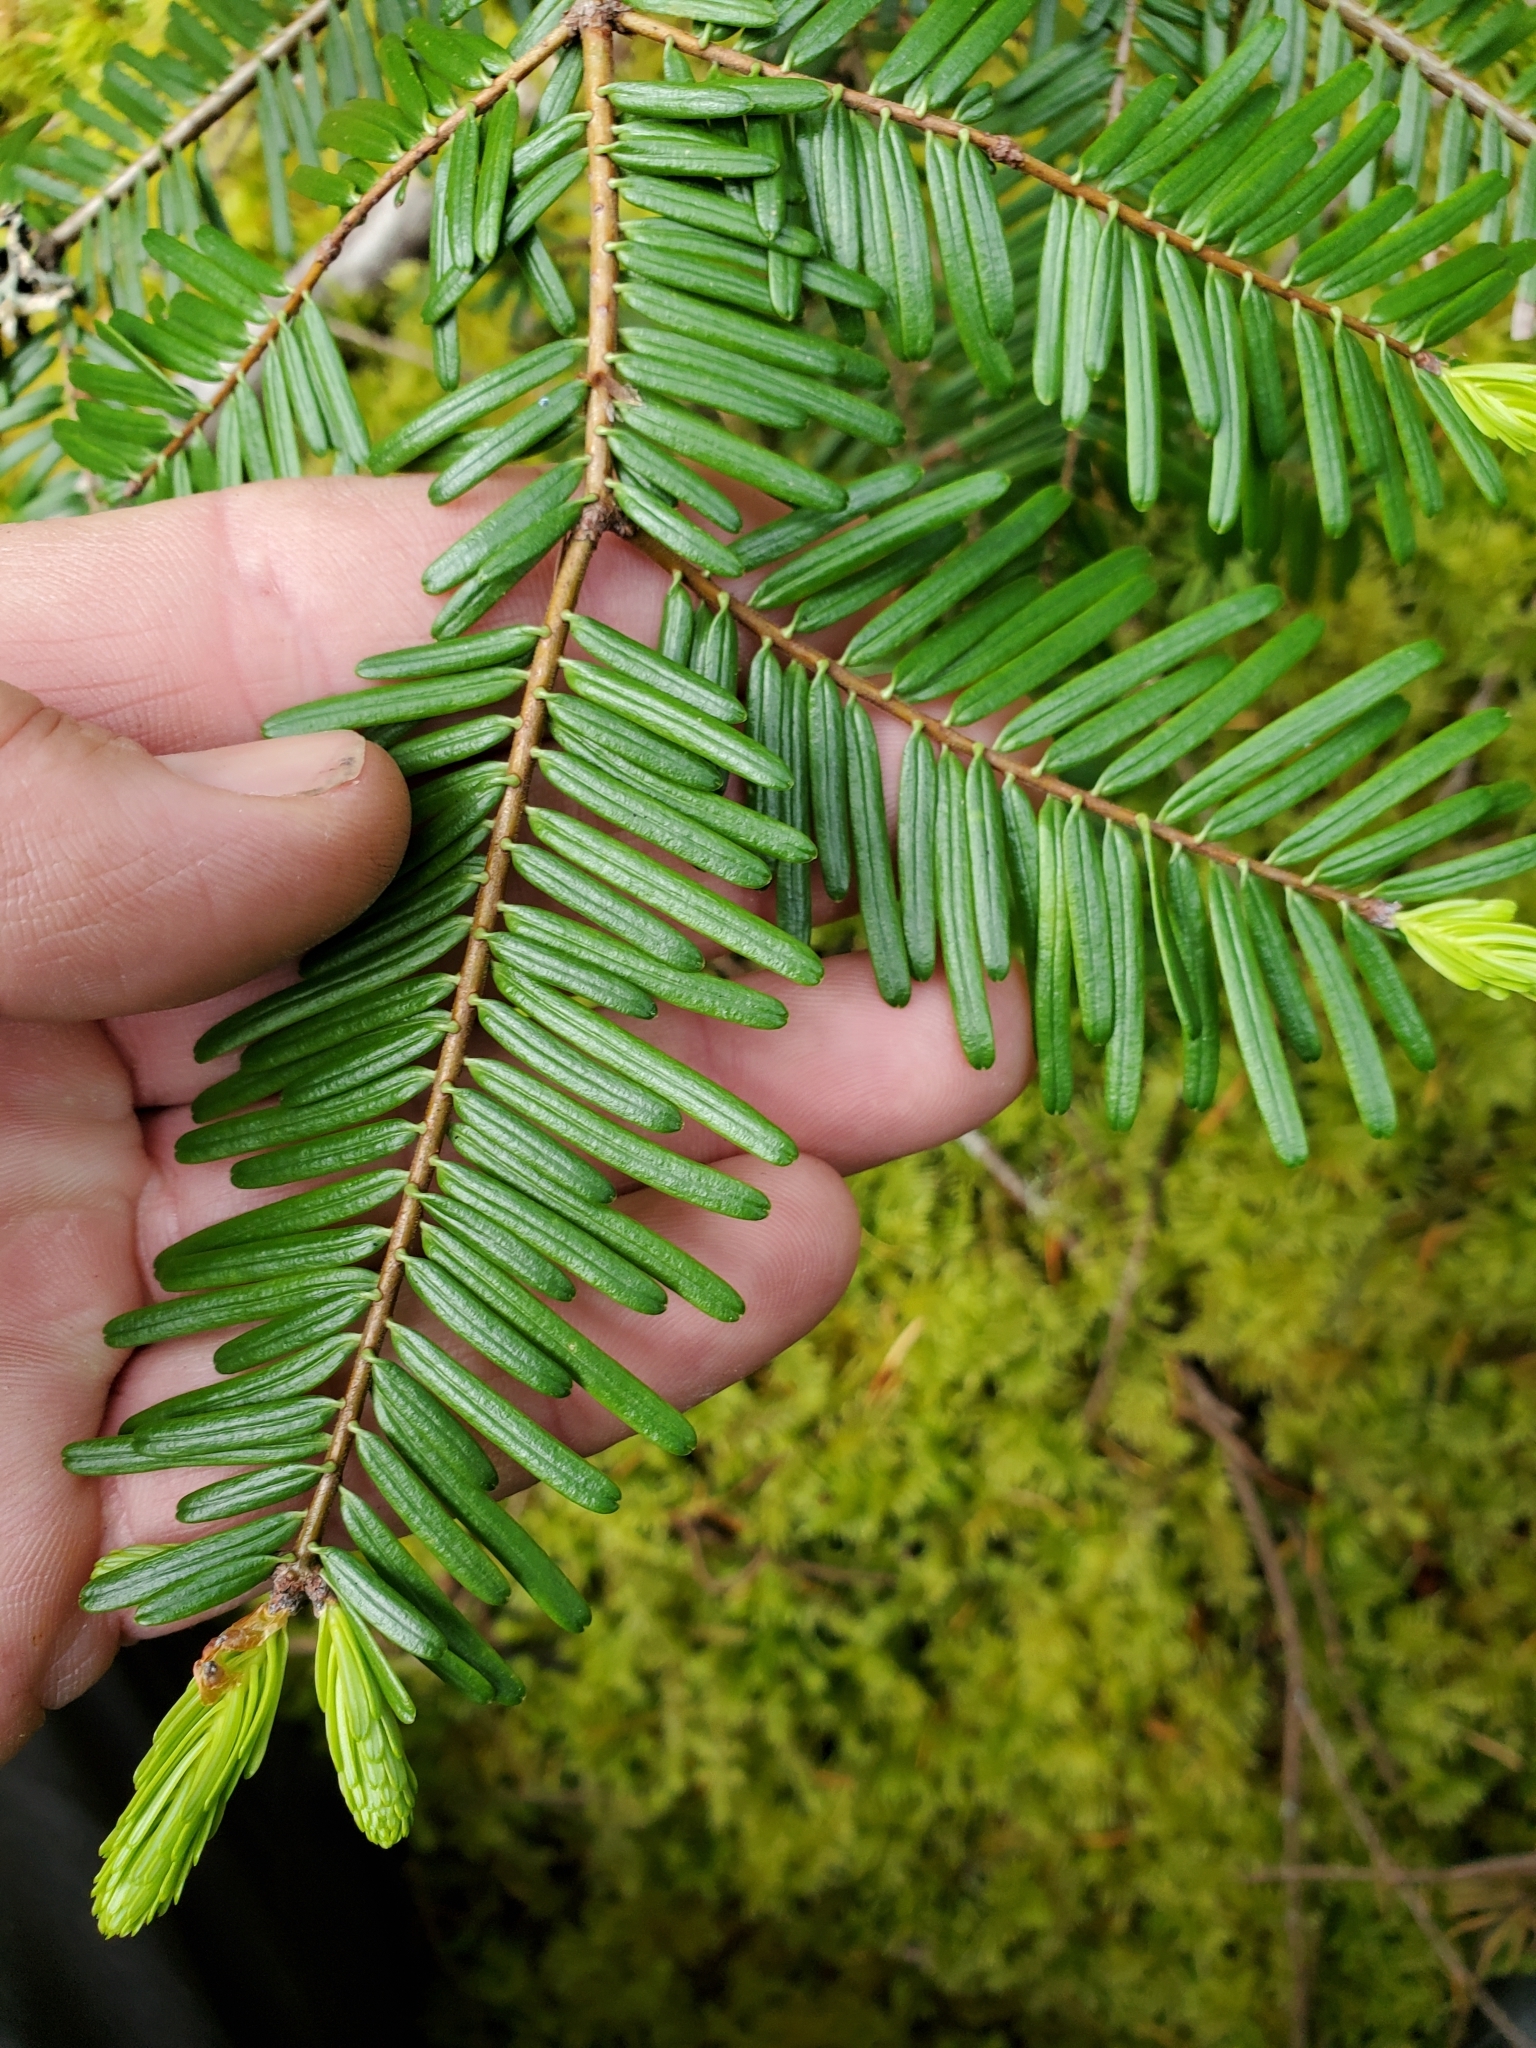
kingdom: Plantae
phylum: Tracheophyta
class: Pinopsida
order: Pinales
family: Pinaceae
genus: Abies
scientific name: Abies grandis
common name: Giant fir
